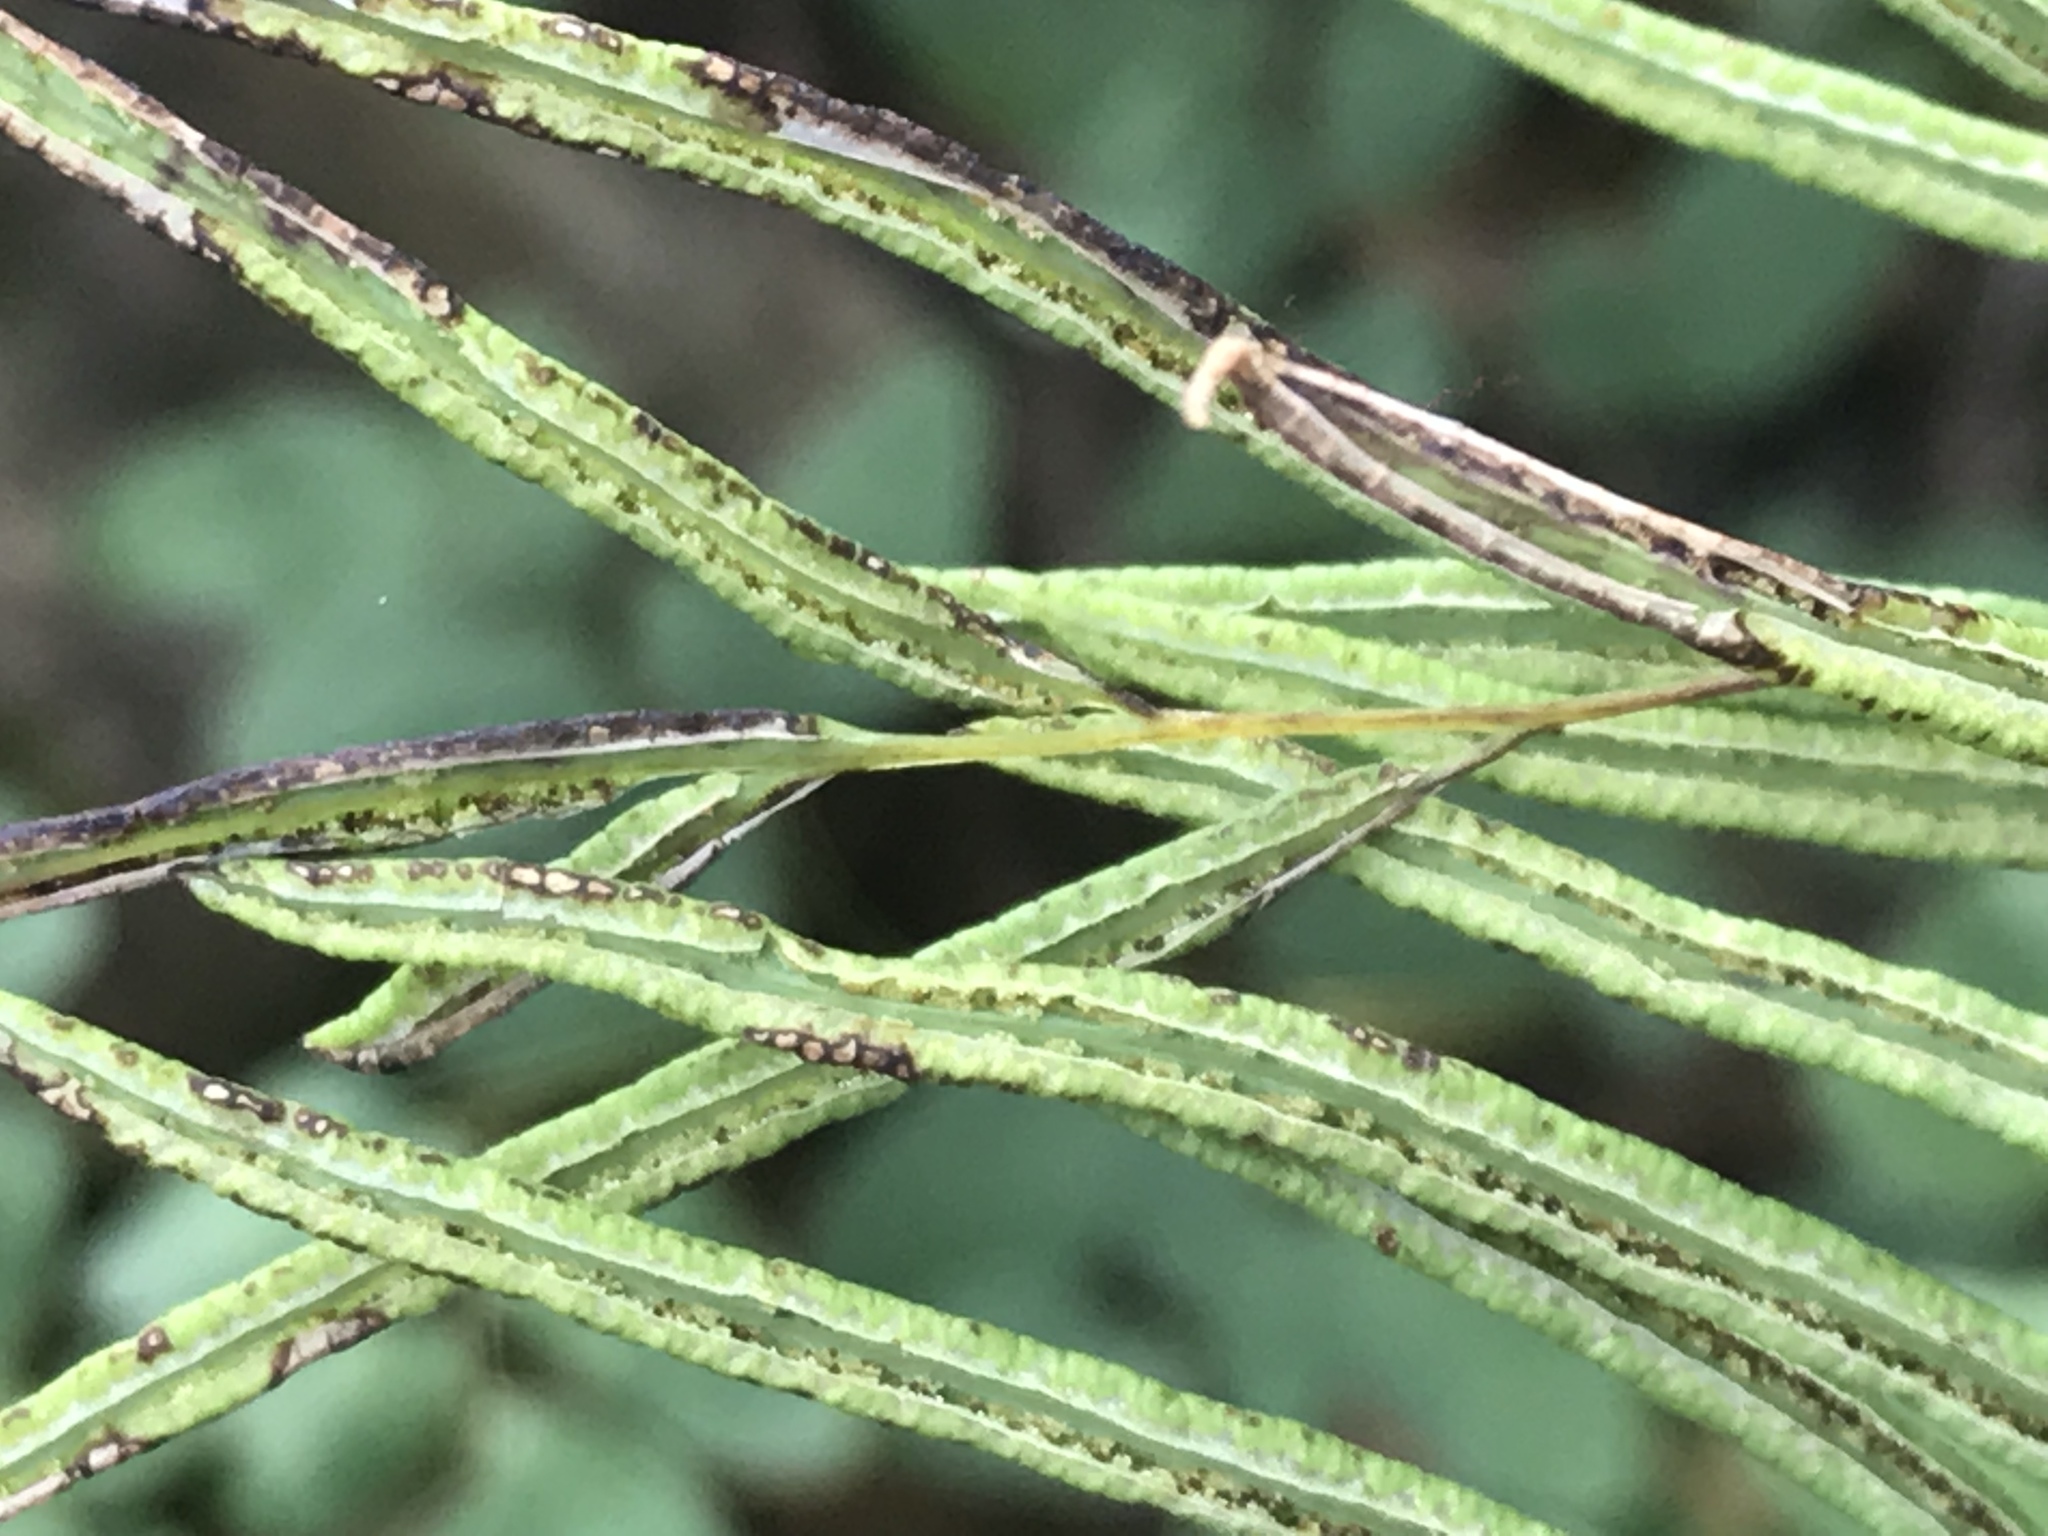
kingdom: Plantae
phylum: Tracheophyta
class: Polypodiopsida
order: Polypodiales
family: Pteridaceae
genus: Llavea
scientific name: Llavea cordifolia
